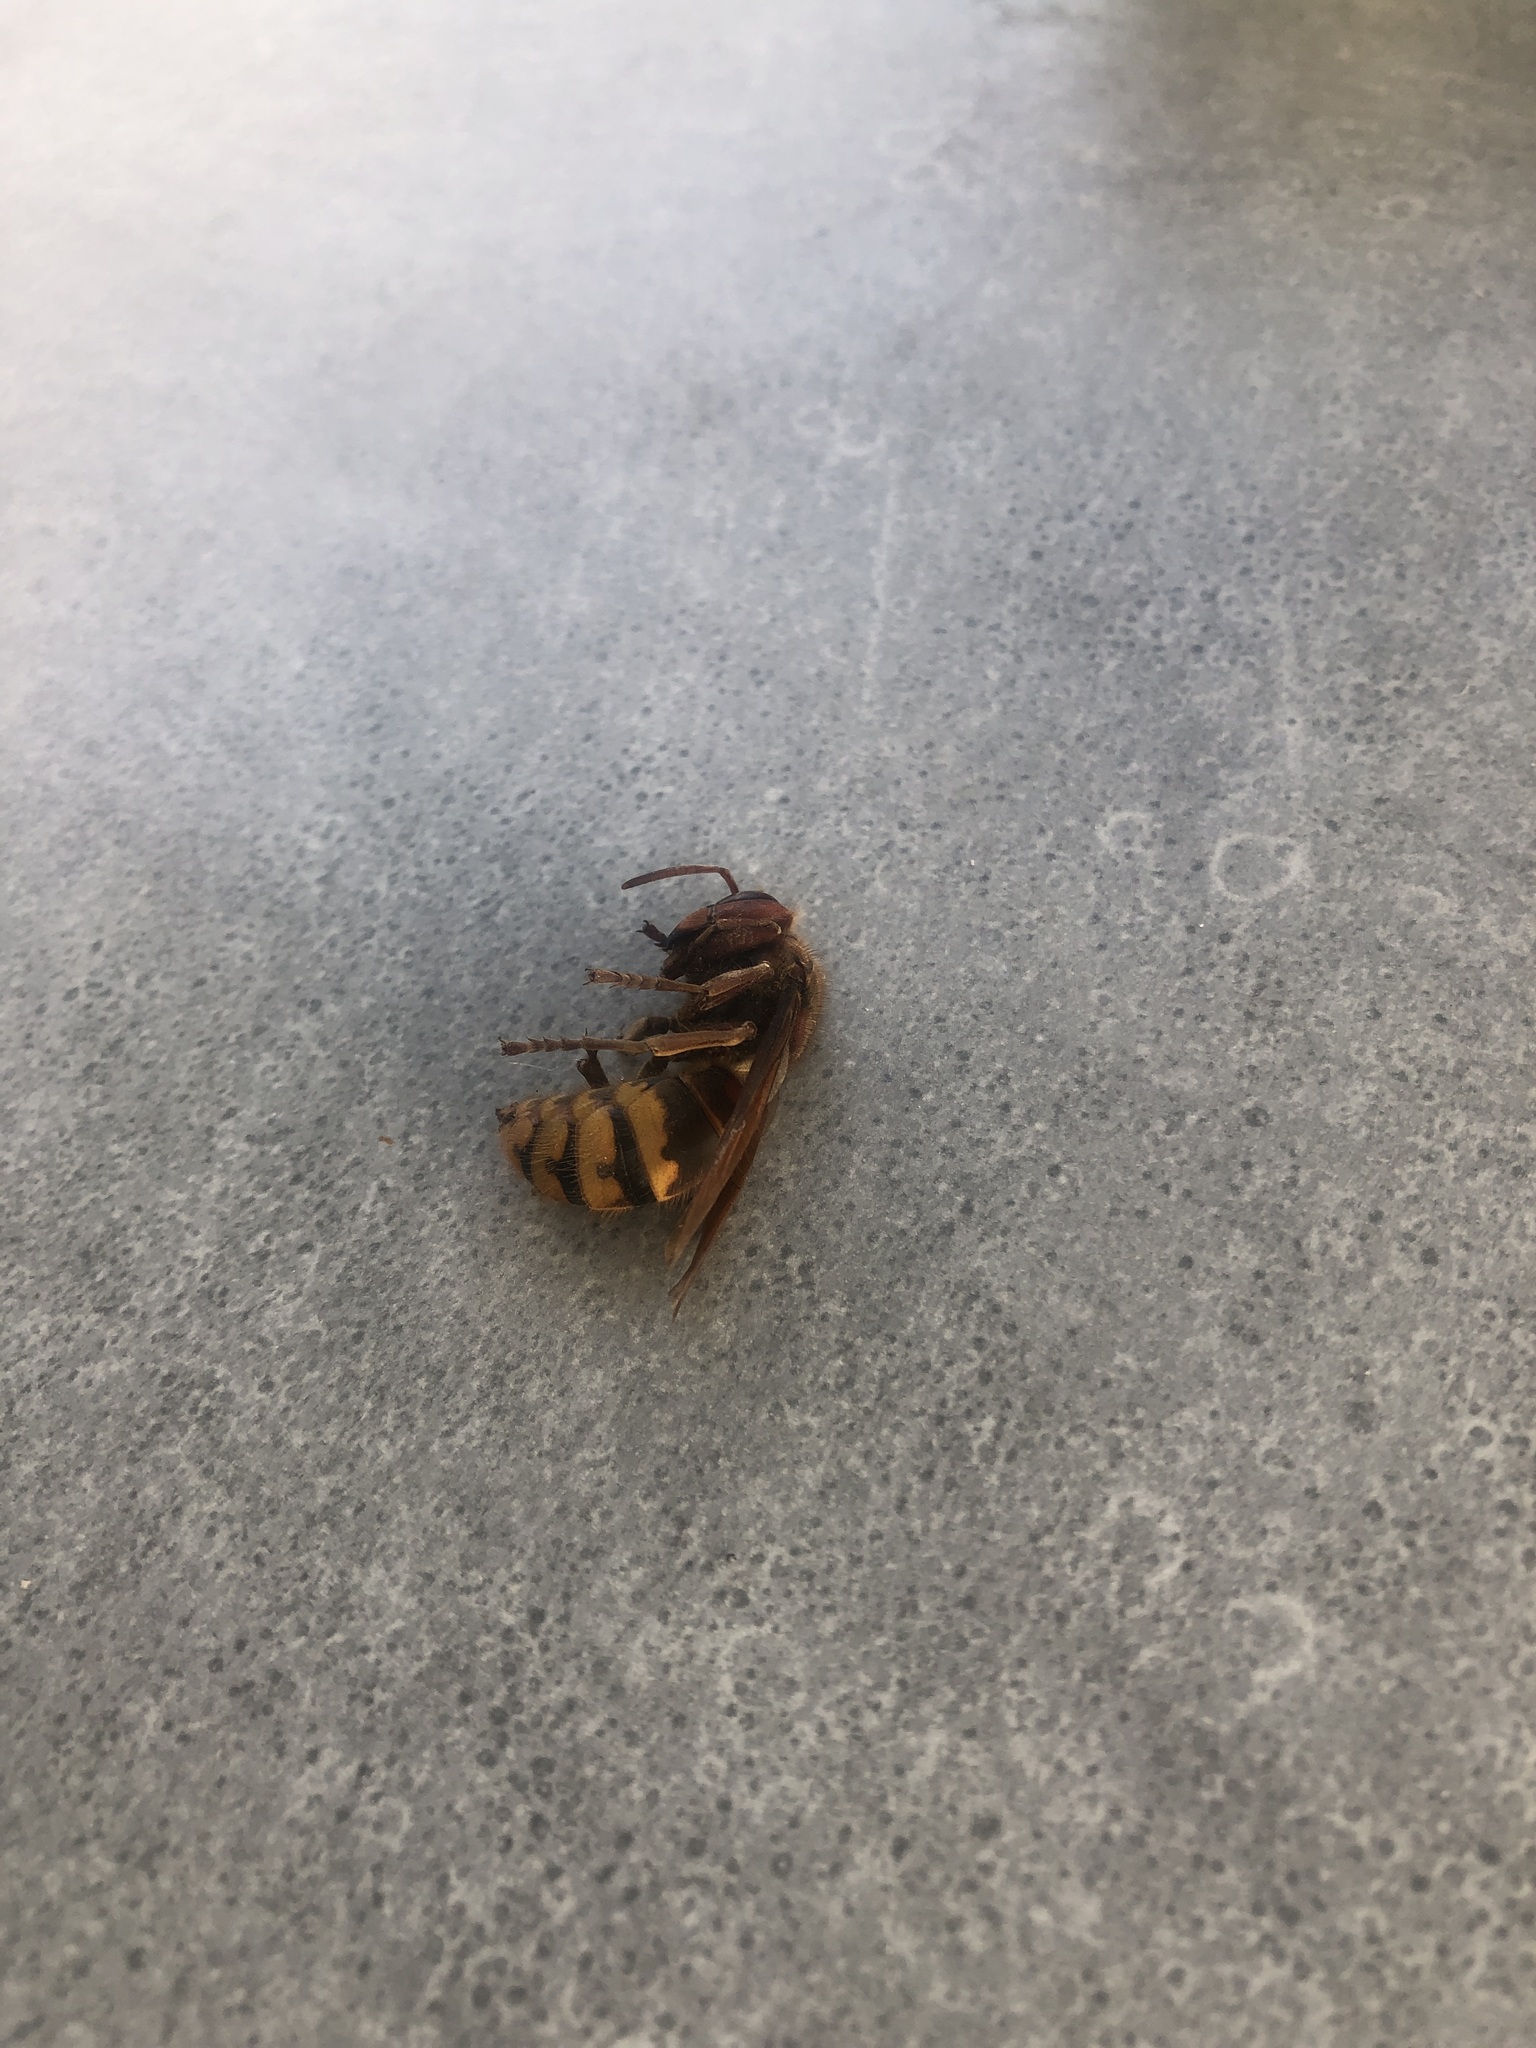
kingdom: Animalia
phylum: Arthropoda
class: Insecta
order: Hymenoptera
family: Vespidae
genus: Vespa
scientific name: Vespa crabro
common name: Hornet
